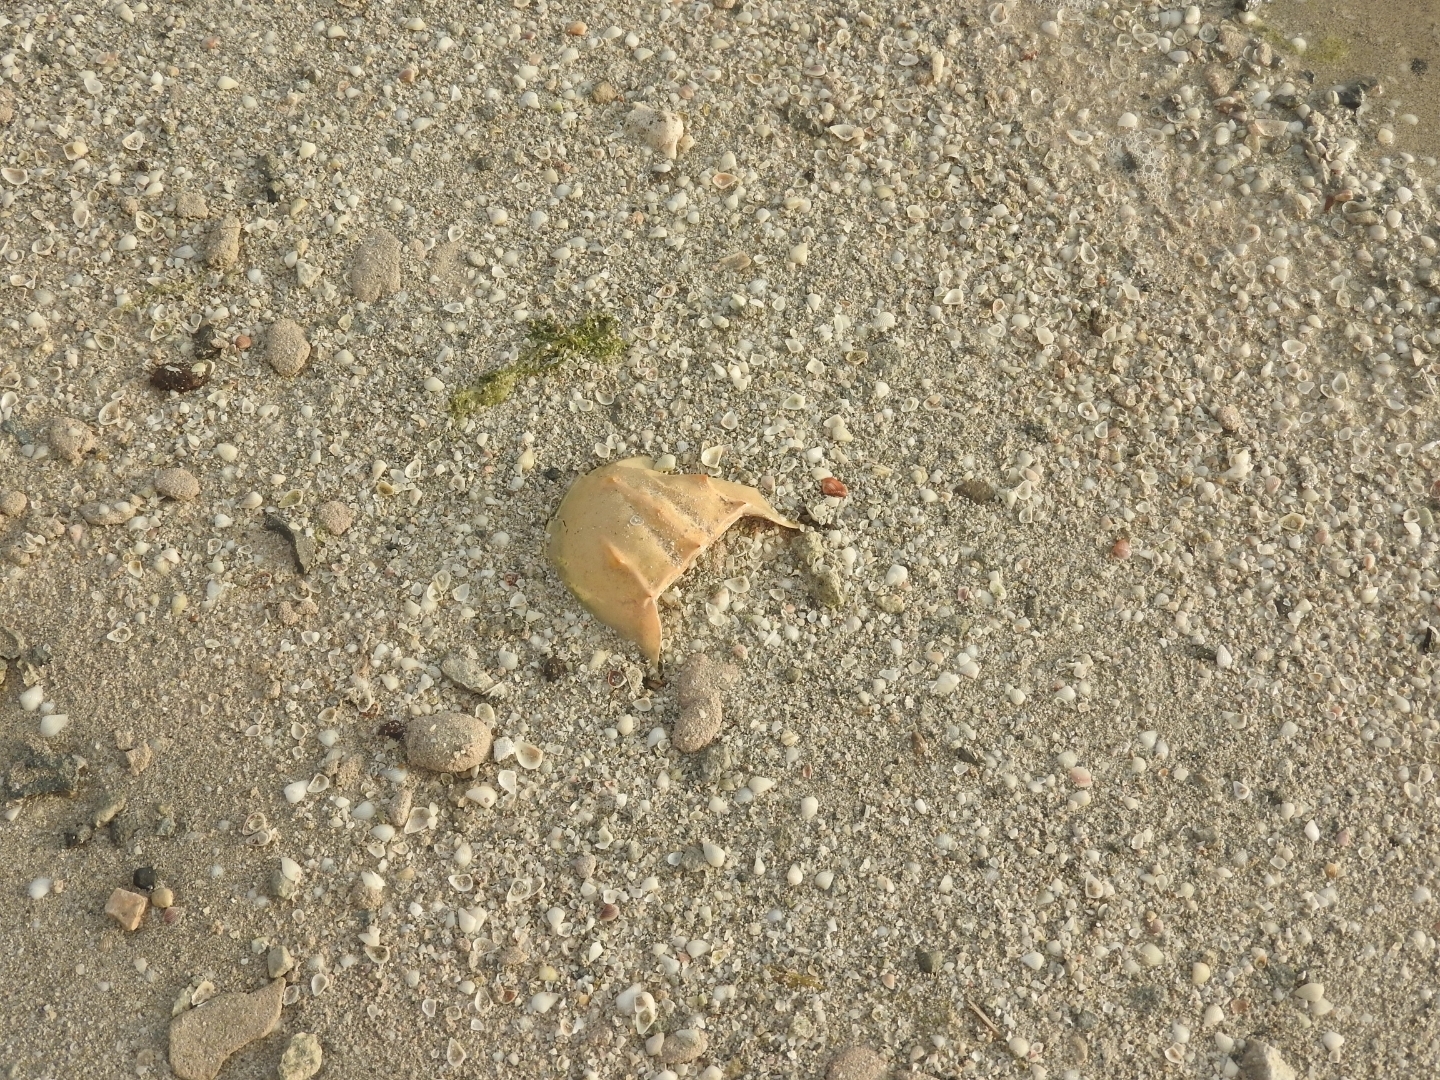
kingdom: Animalia
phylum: Arthropoda
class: Merostomata
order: Xiphosurida
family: Limulidae
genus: Limulus
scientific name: Limulus polyphemus
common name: Horseshoe crab
